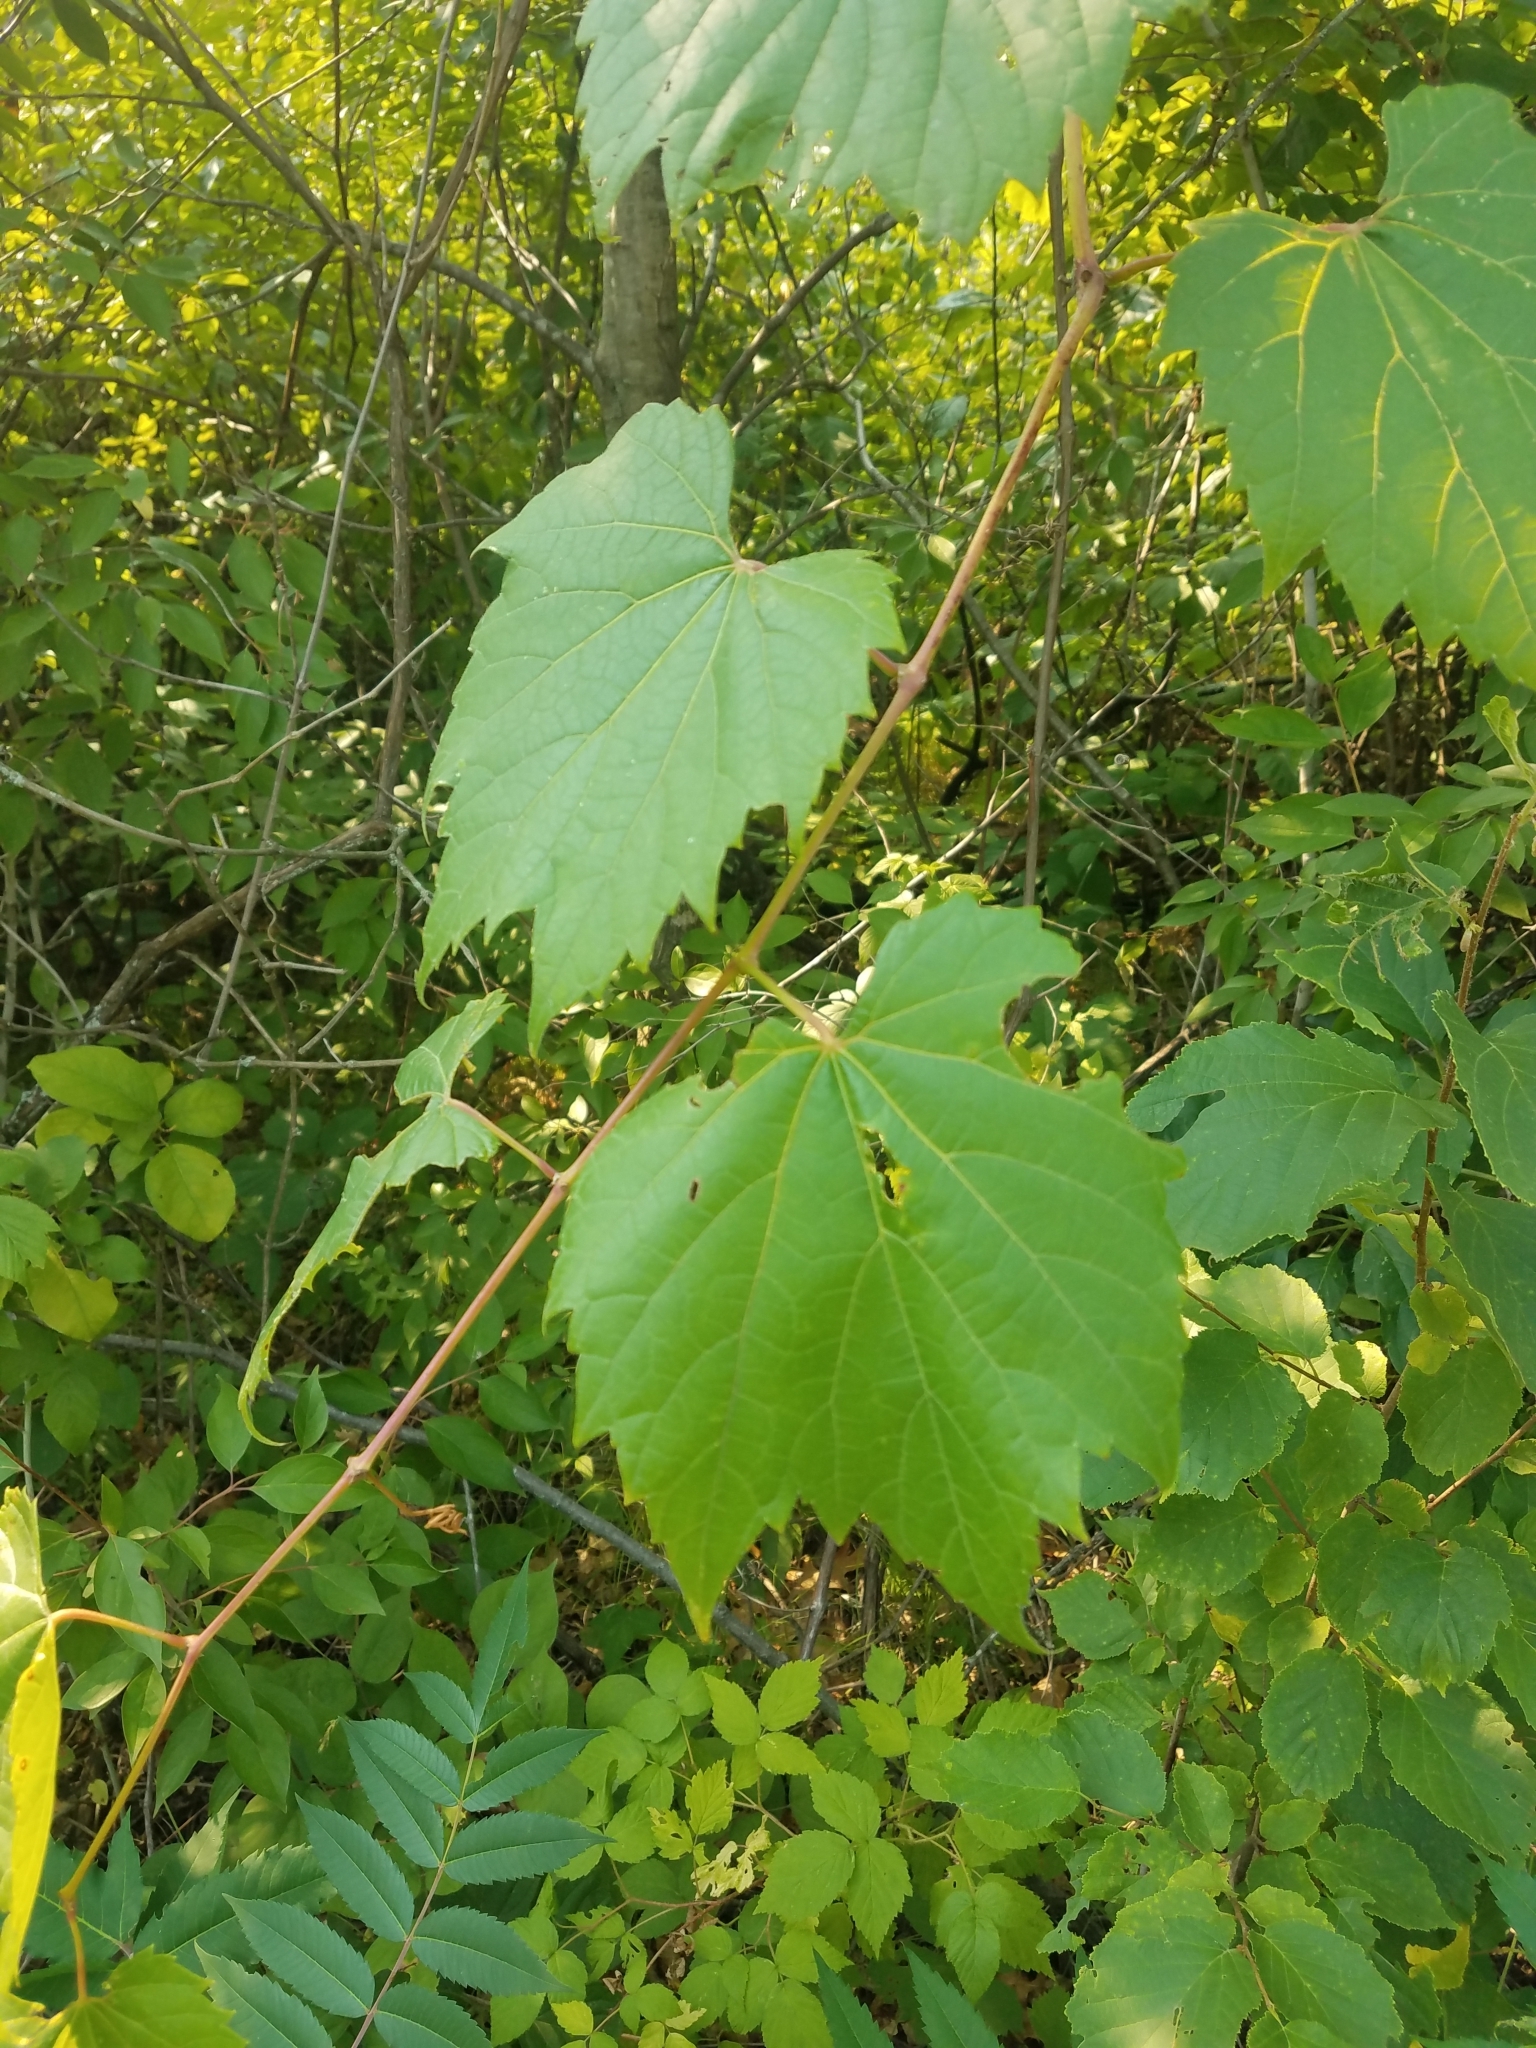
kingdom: Plantae
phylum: Tracheophyta
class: Magnoliopsida
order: Vitales
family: Vitaceae
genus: Vitis
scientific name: Vitis riparia
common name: Frost grape
